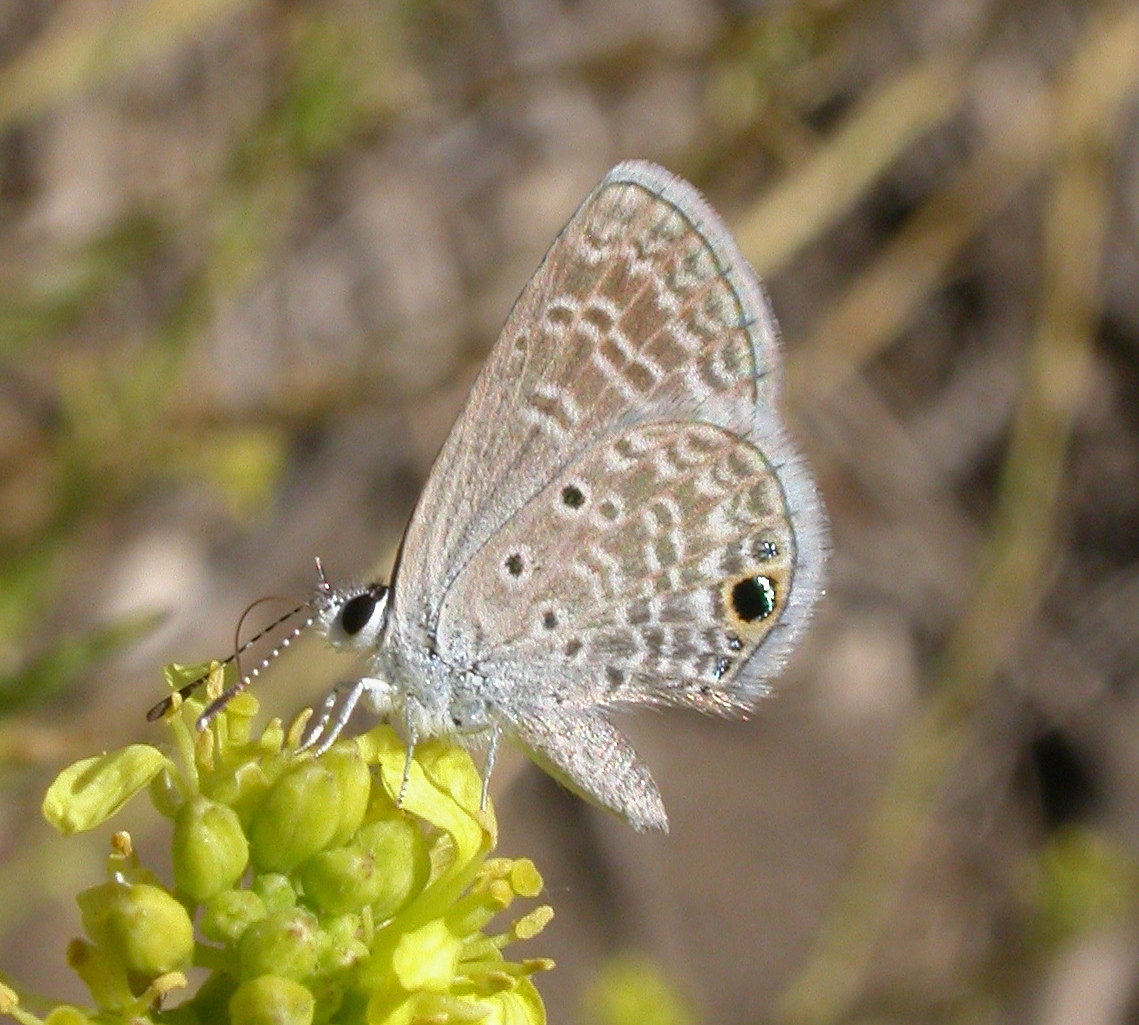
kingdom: Animalia
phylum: Arthropoda
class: Insecta
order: Lepidoptera
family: Lycaenidae
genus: Hemiargus
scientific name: Hemiargus ceraunus
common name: Ceraunus blue
